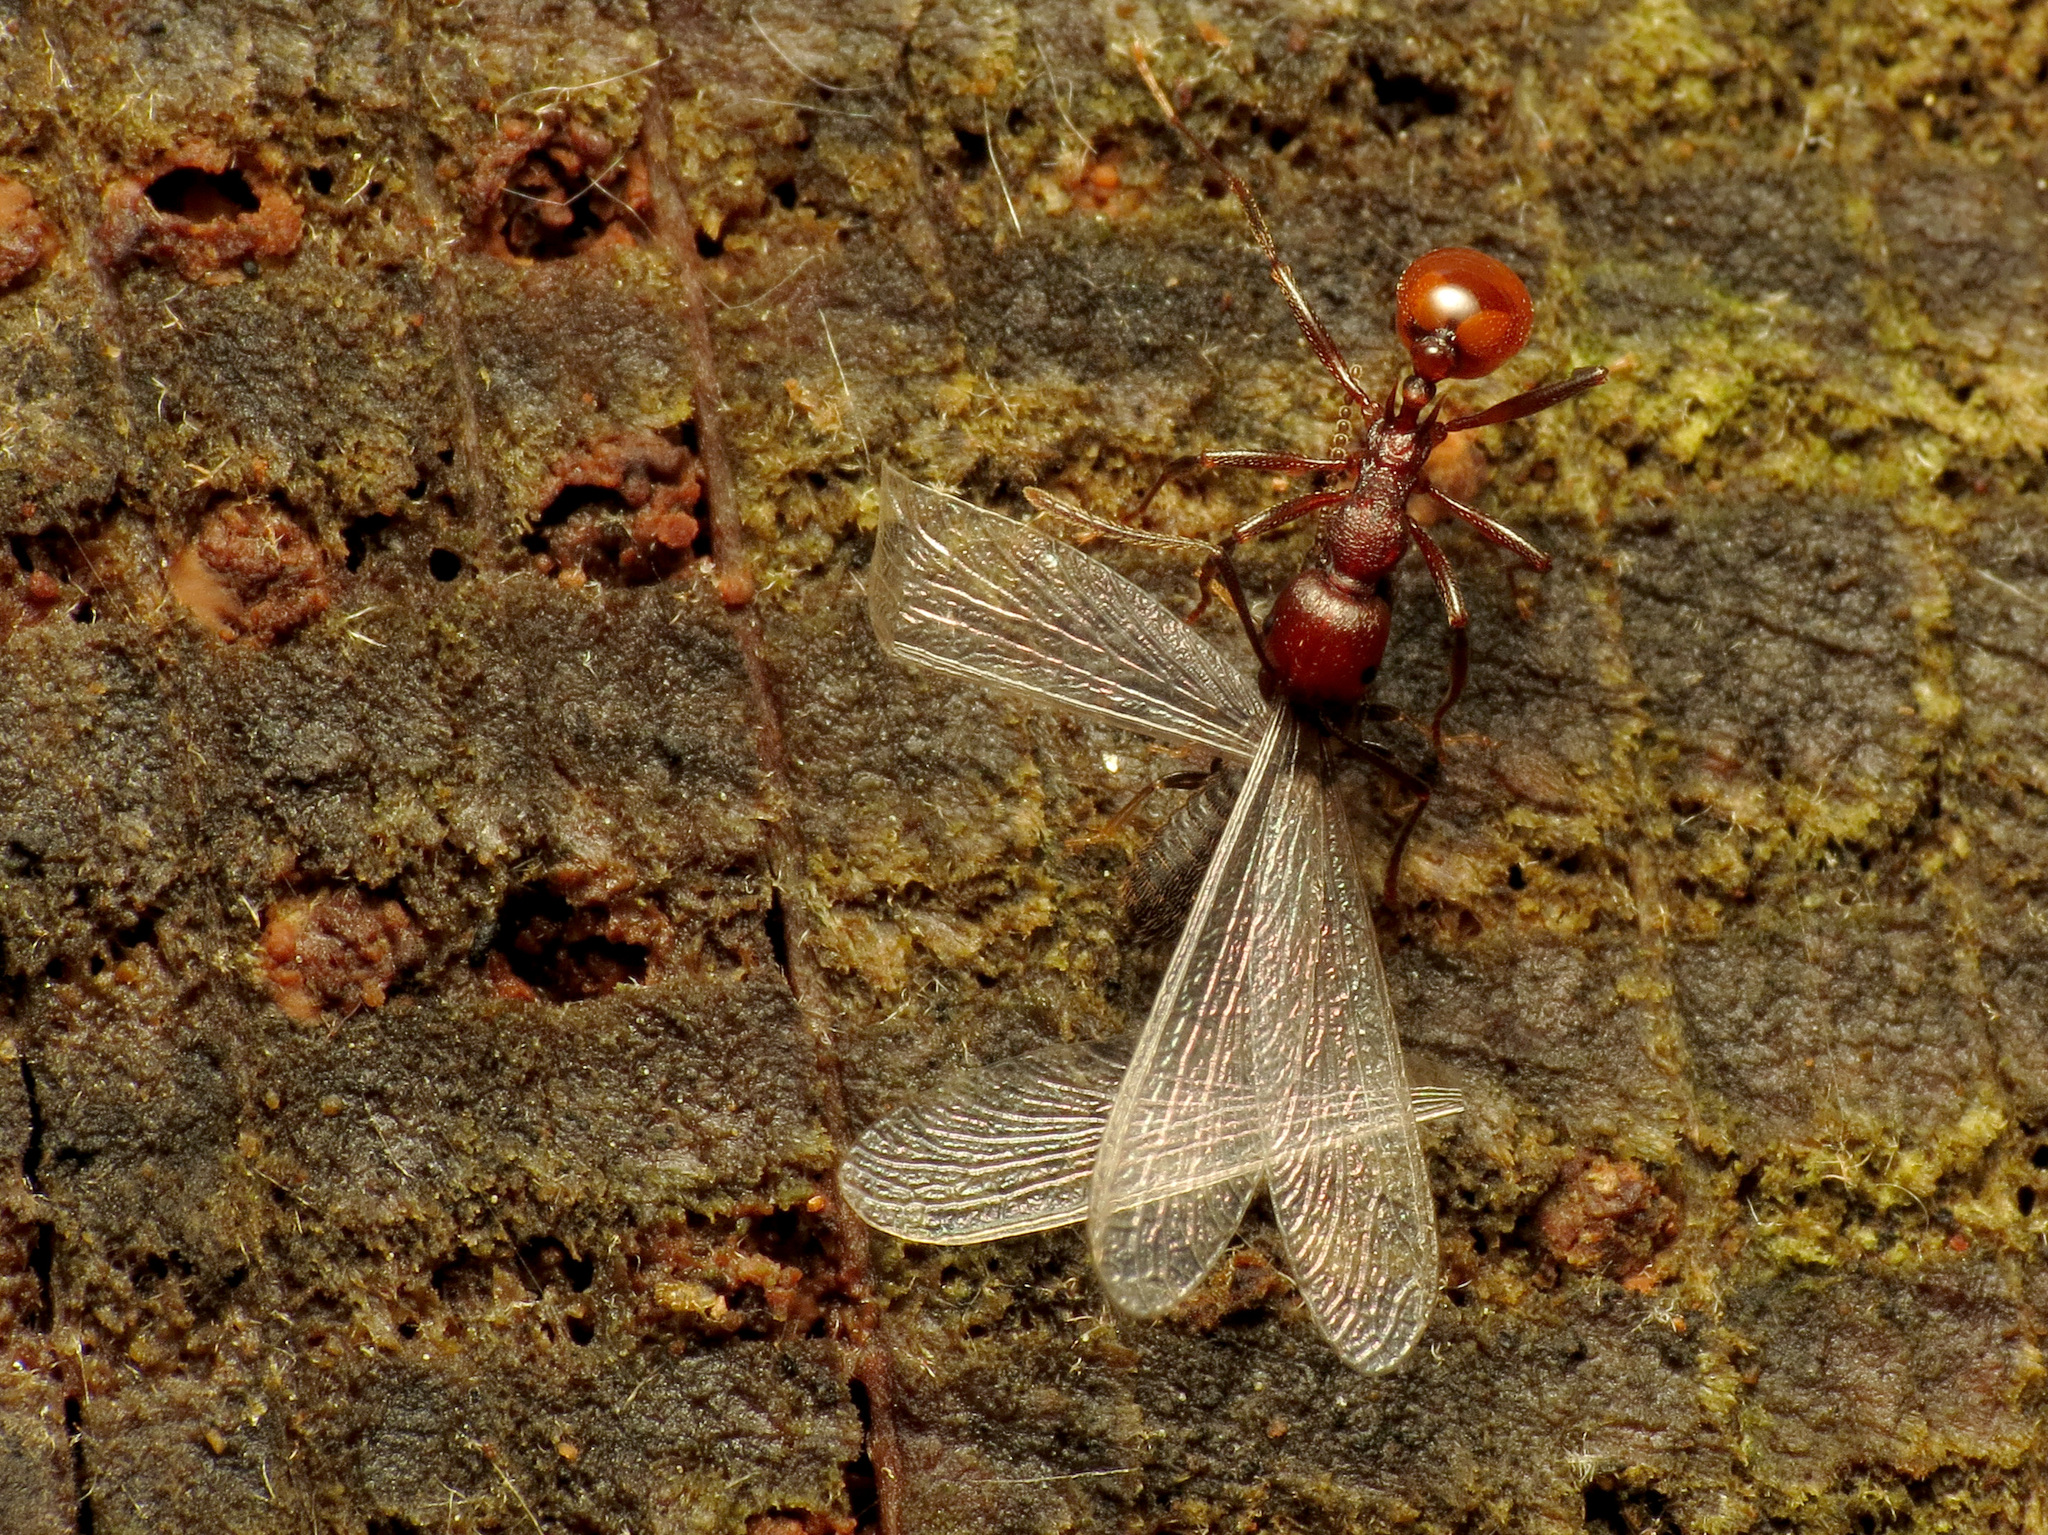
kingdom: Animalia
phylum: Arthropoda
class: Insecta
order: Hymenoptera
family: Formicidae
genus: Aphaenogaster
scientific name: Aphaenogaster tennesseensis
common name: Tennessee thread-waisted ant
